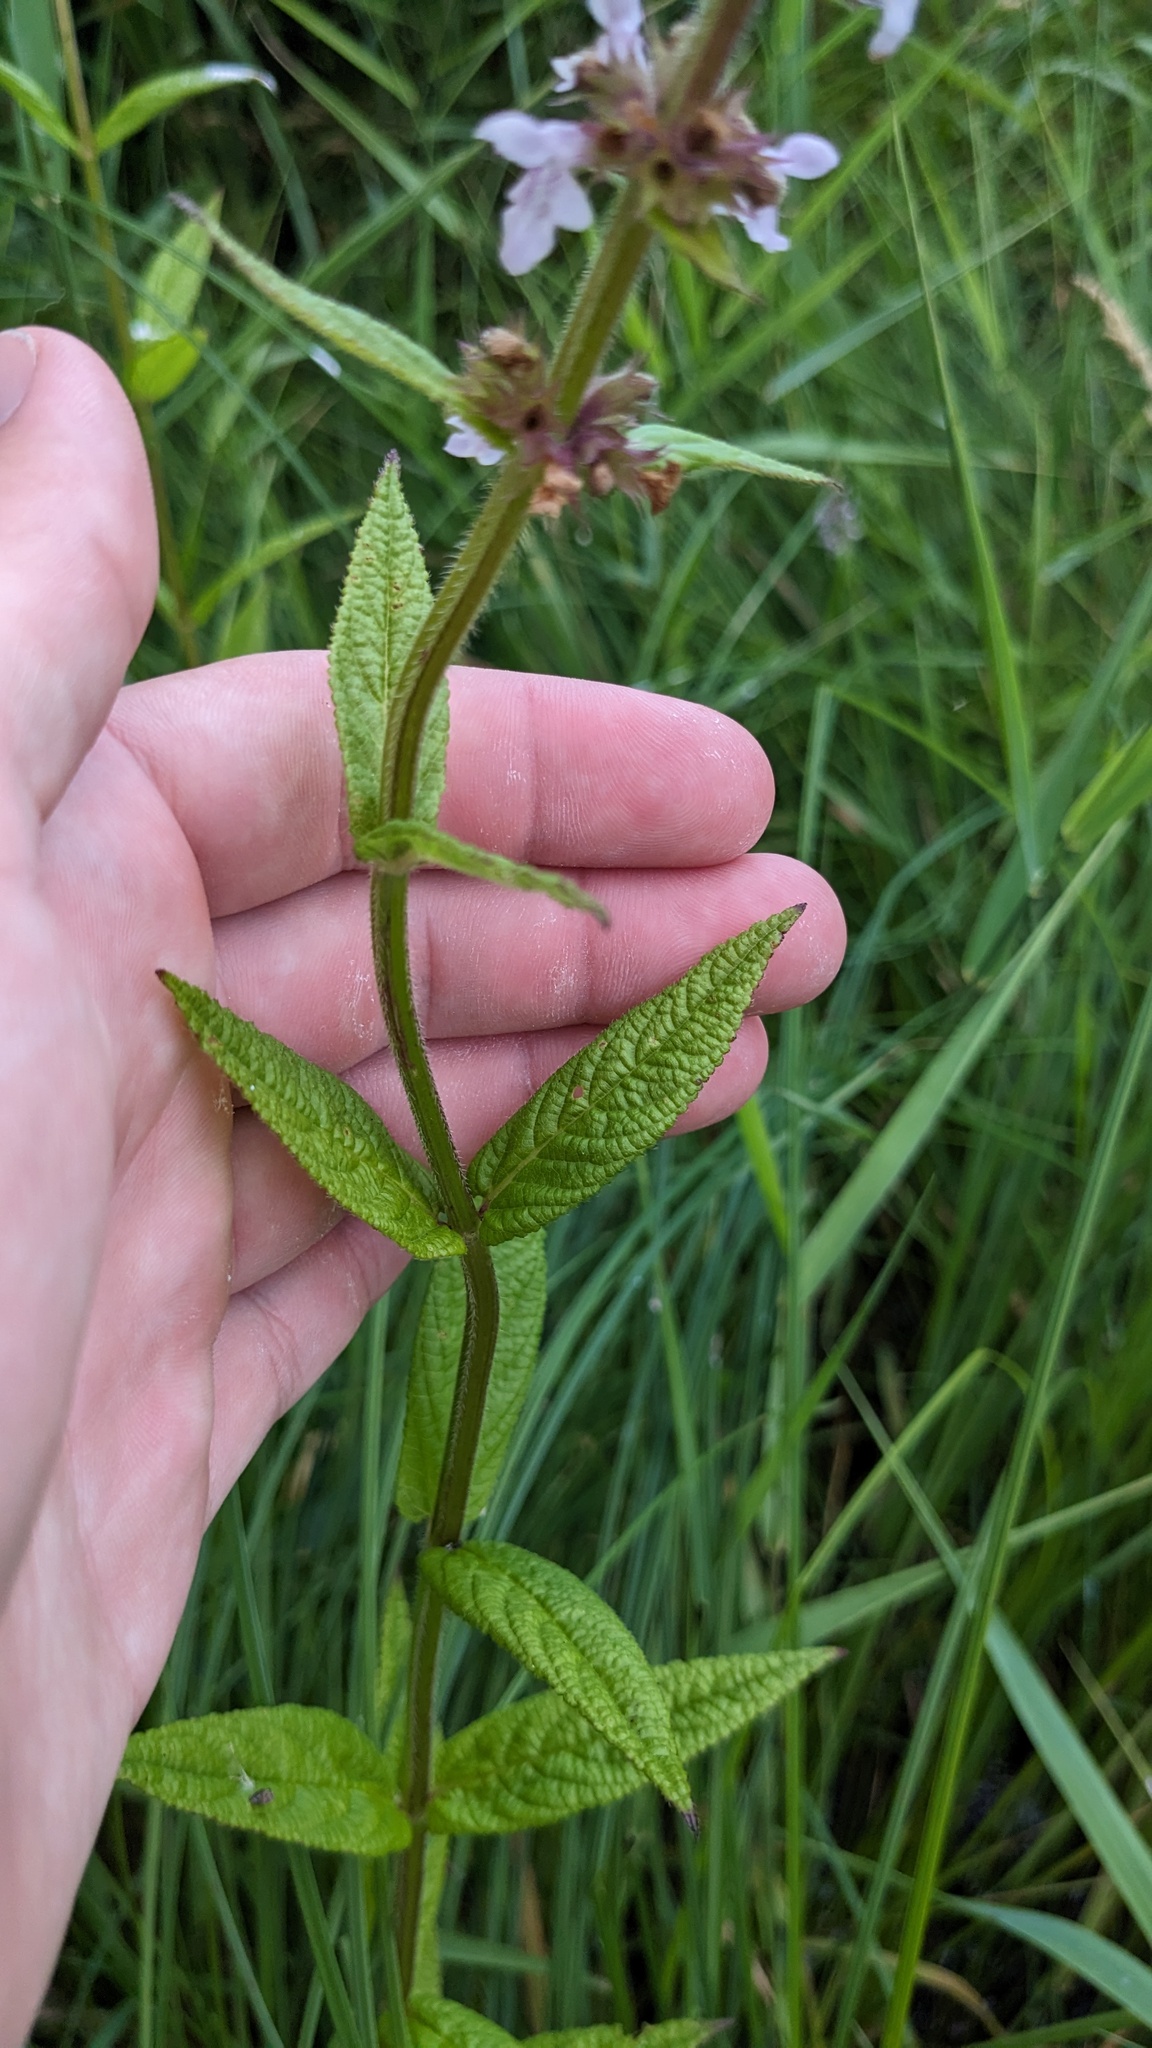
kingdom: Plantae
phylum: Tracheophyta
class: Magnoliopsida
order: Lamiales
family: Lamiaceae
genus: Stachys
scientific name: Stachys hispida
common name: Hispid hedge-nettle
